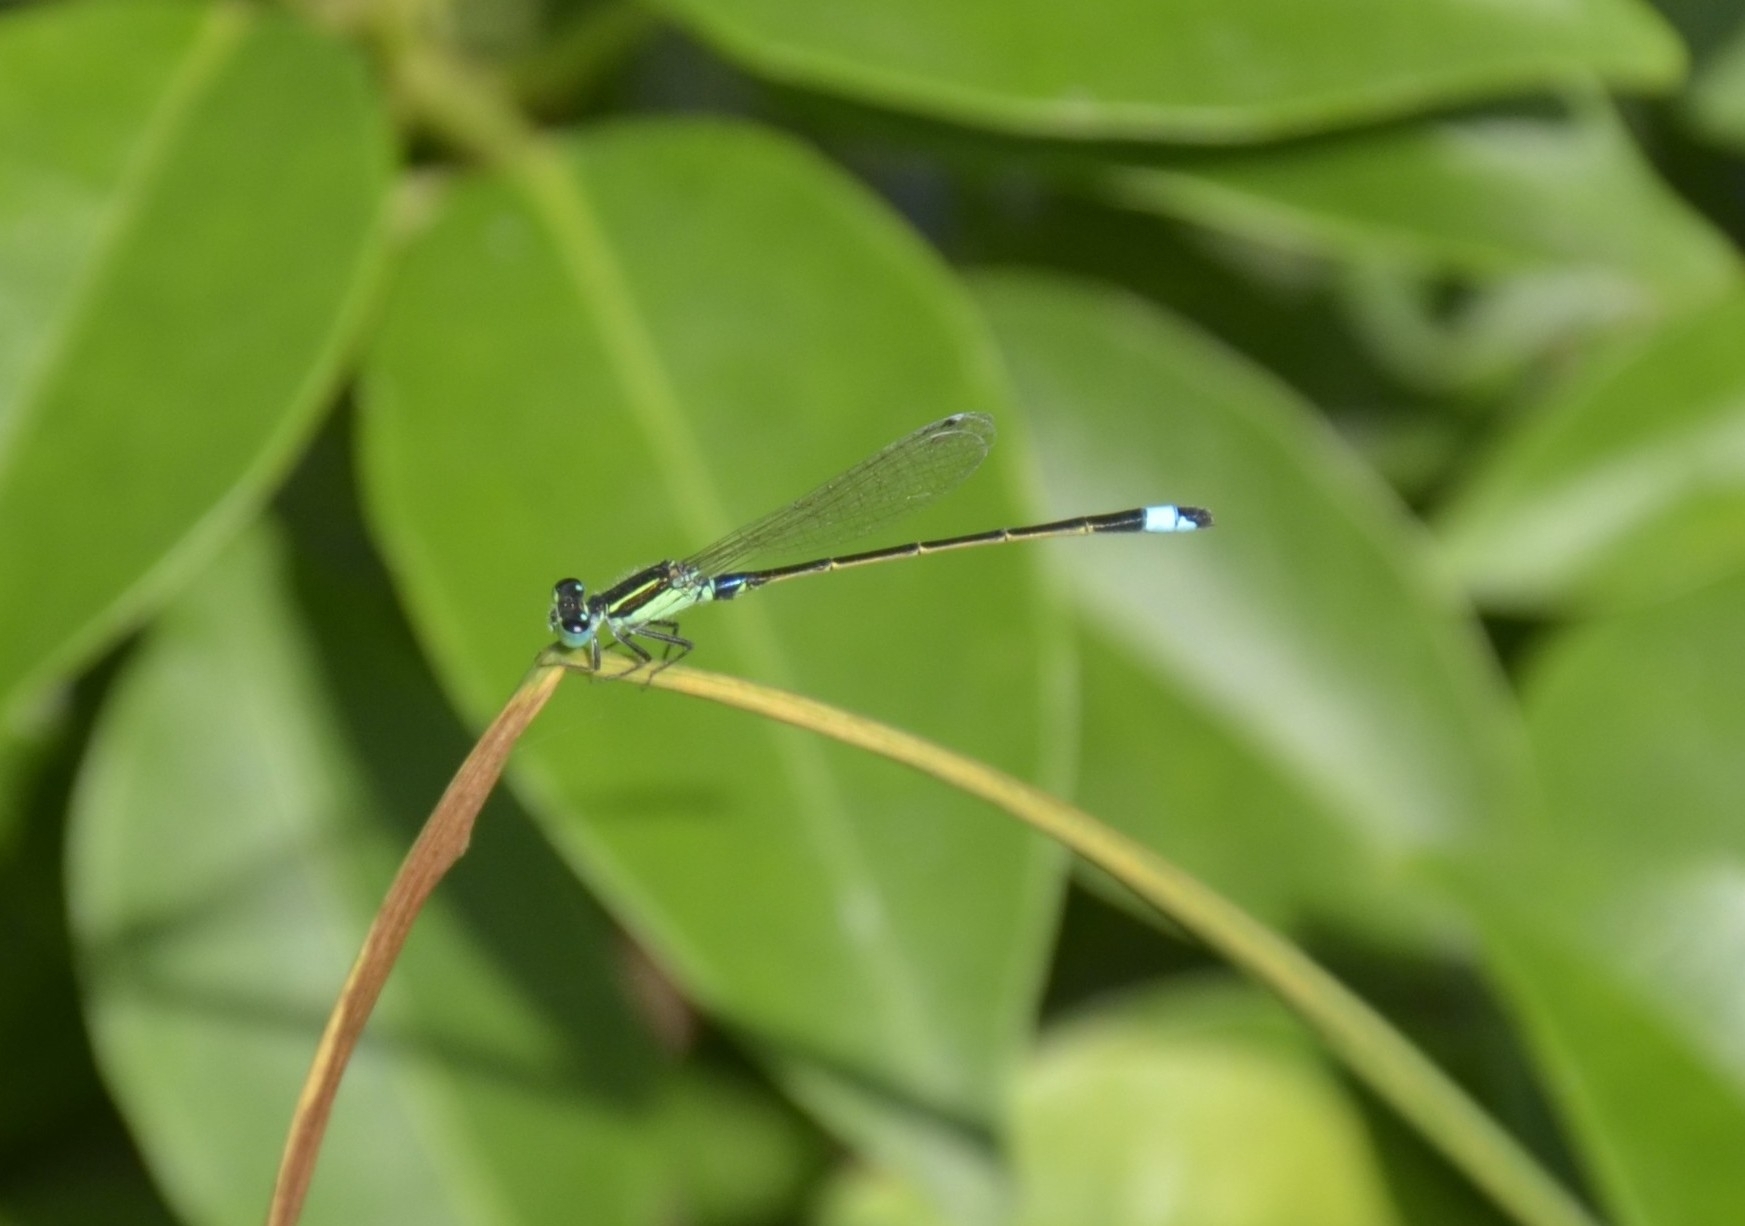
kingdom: Animalia
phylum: Arthropoda
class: Insecta
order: Odonata
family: Coenagrionidae
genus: Ischnura
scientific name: Ischnura senegalensis
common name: Tropical bluetail
